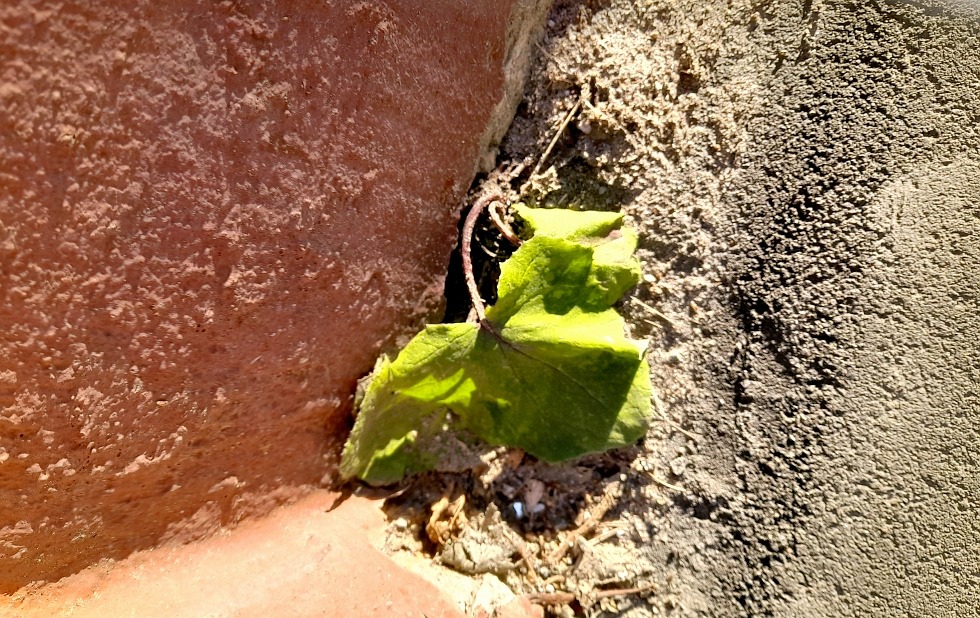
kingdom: Plantae
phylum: Tracheophyta
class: Magnoliopsida
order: Asterales
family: Asteraceae
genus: Tussilago
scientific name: Tussilago farfara
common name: Coltsfoot
